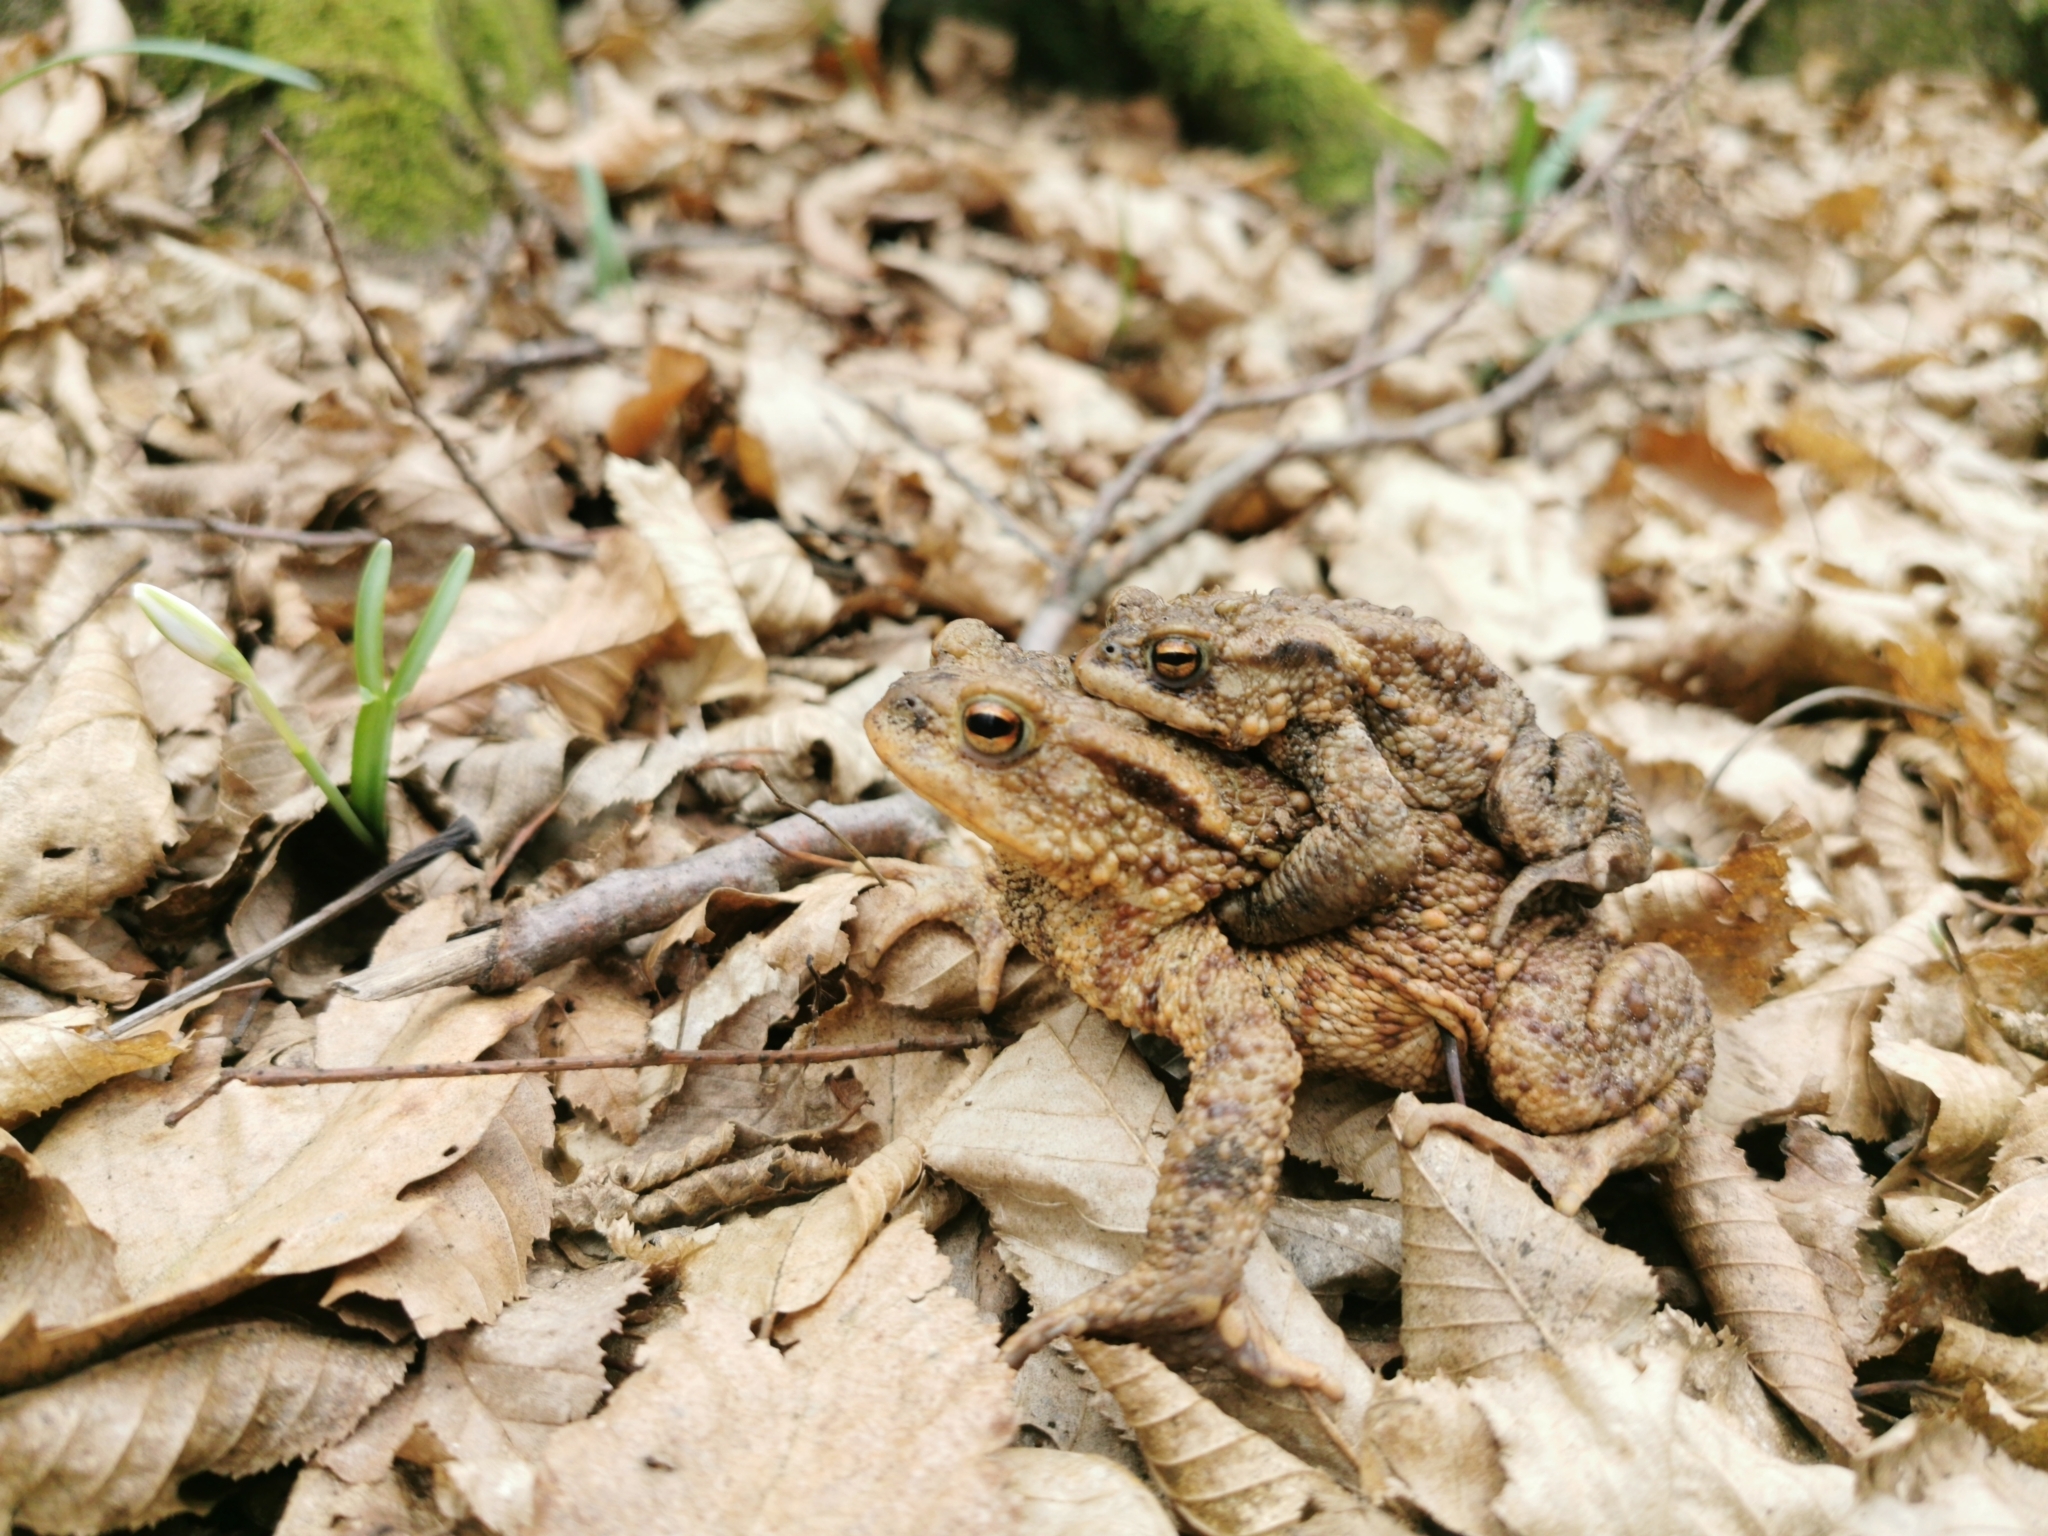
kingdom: Animalia
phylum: Chordata
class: Amphibia
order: Anura
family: Bufonidae
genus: Bufo
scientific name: Bufo bufo
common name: Common toad
